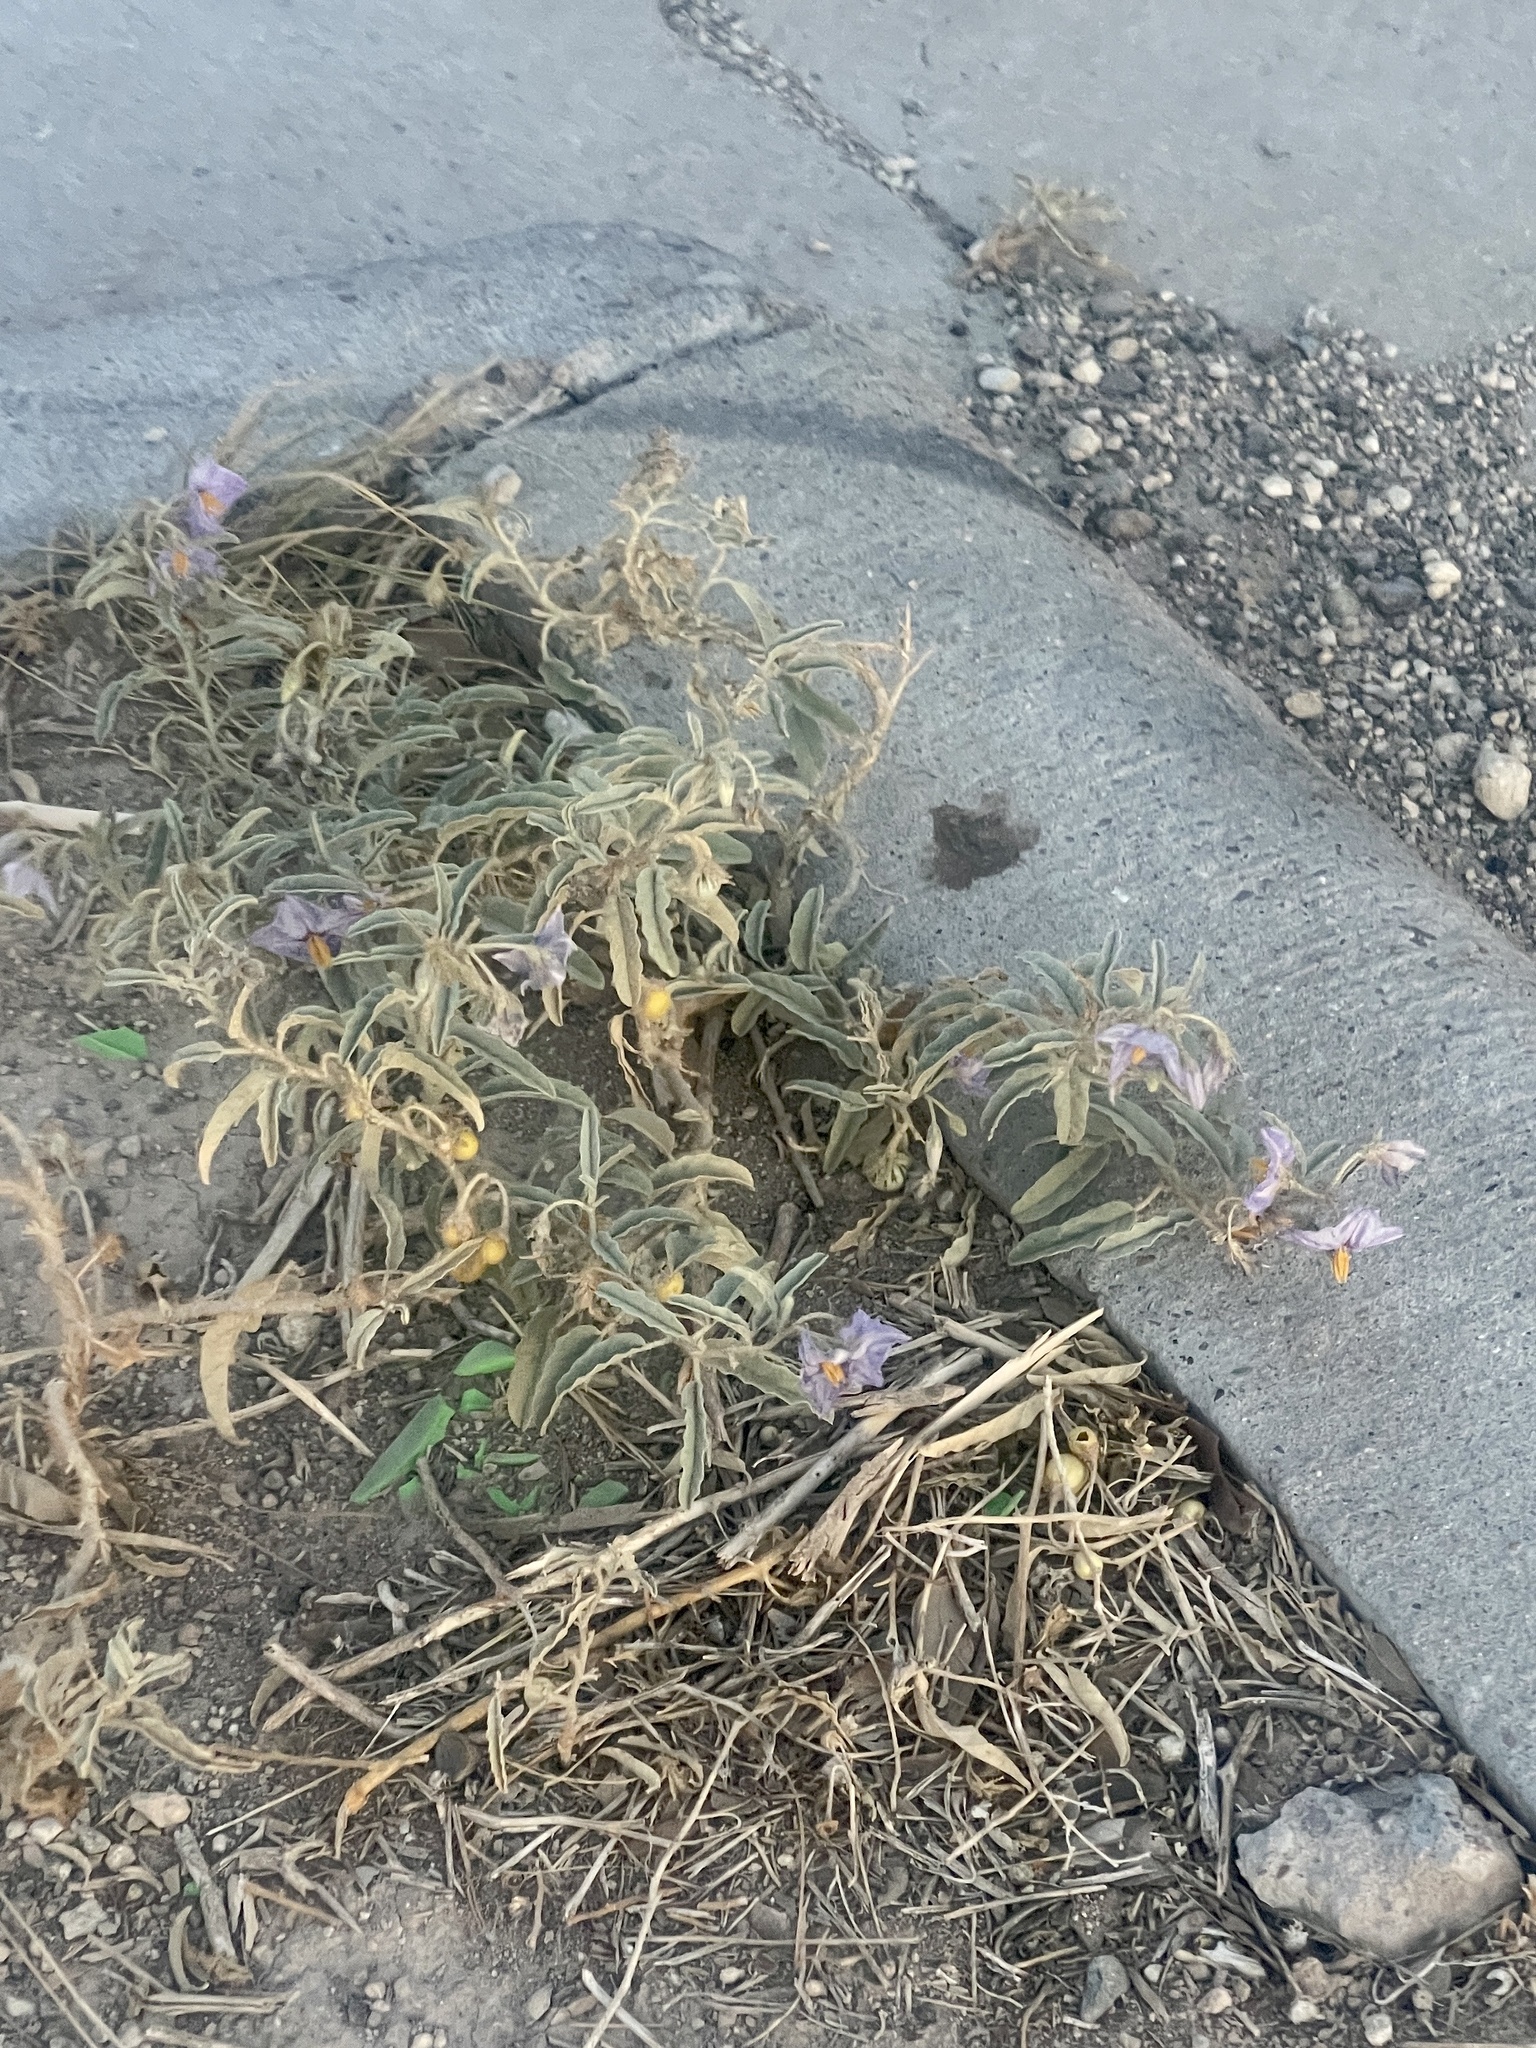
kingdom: Plantae
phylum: Tracheophyta
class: Magnoliopsida
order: Solanales
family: Solanaceae
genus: Solanum
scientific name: Solanum elaeagnifolium
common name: Silverleaf nightshade
